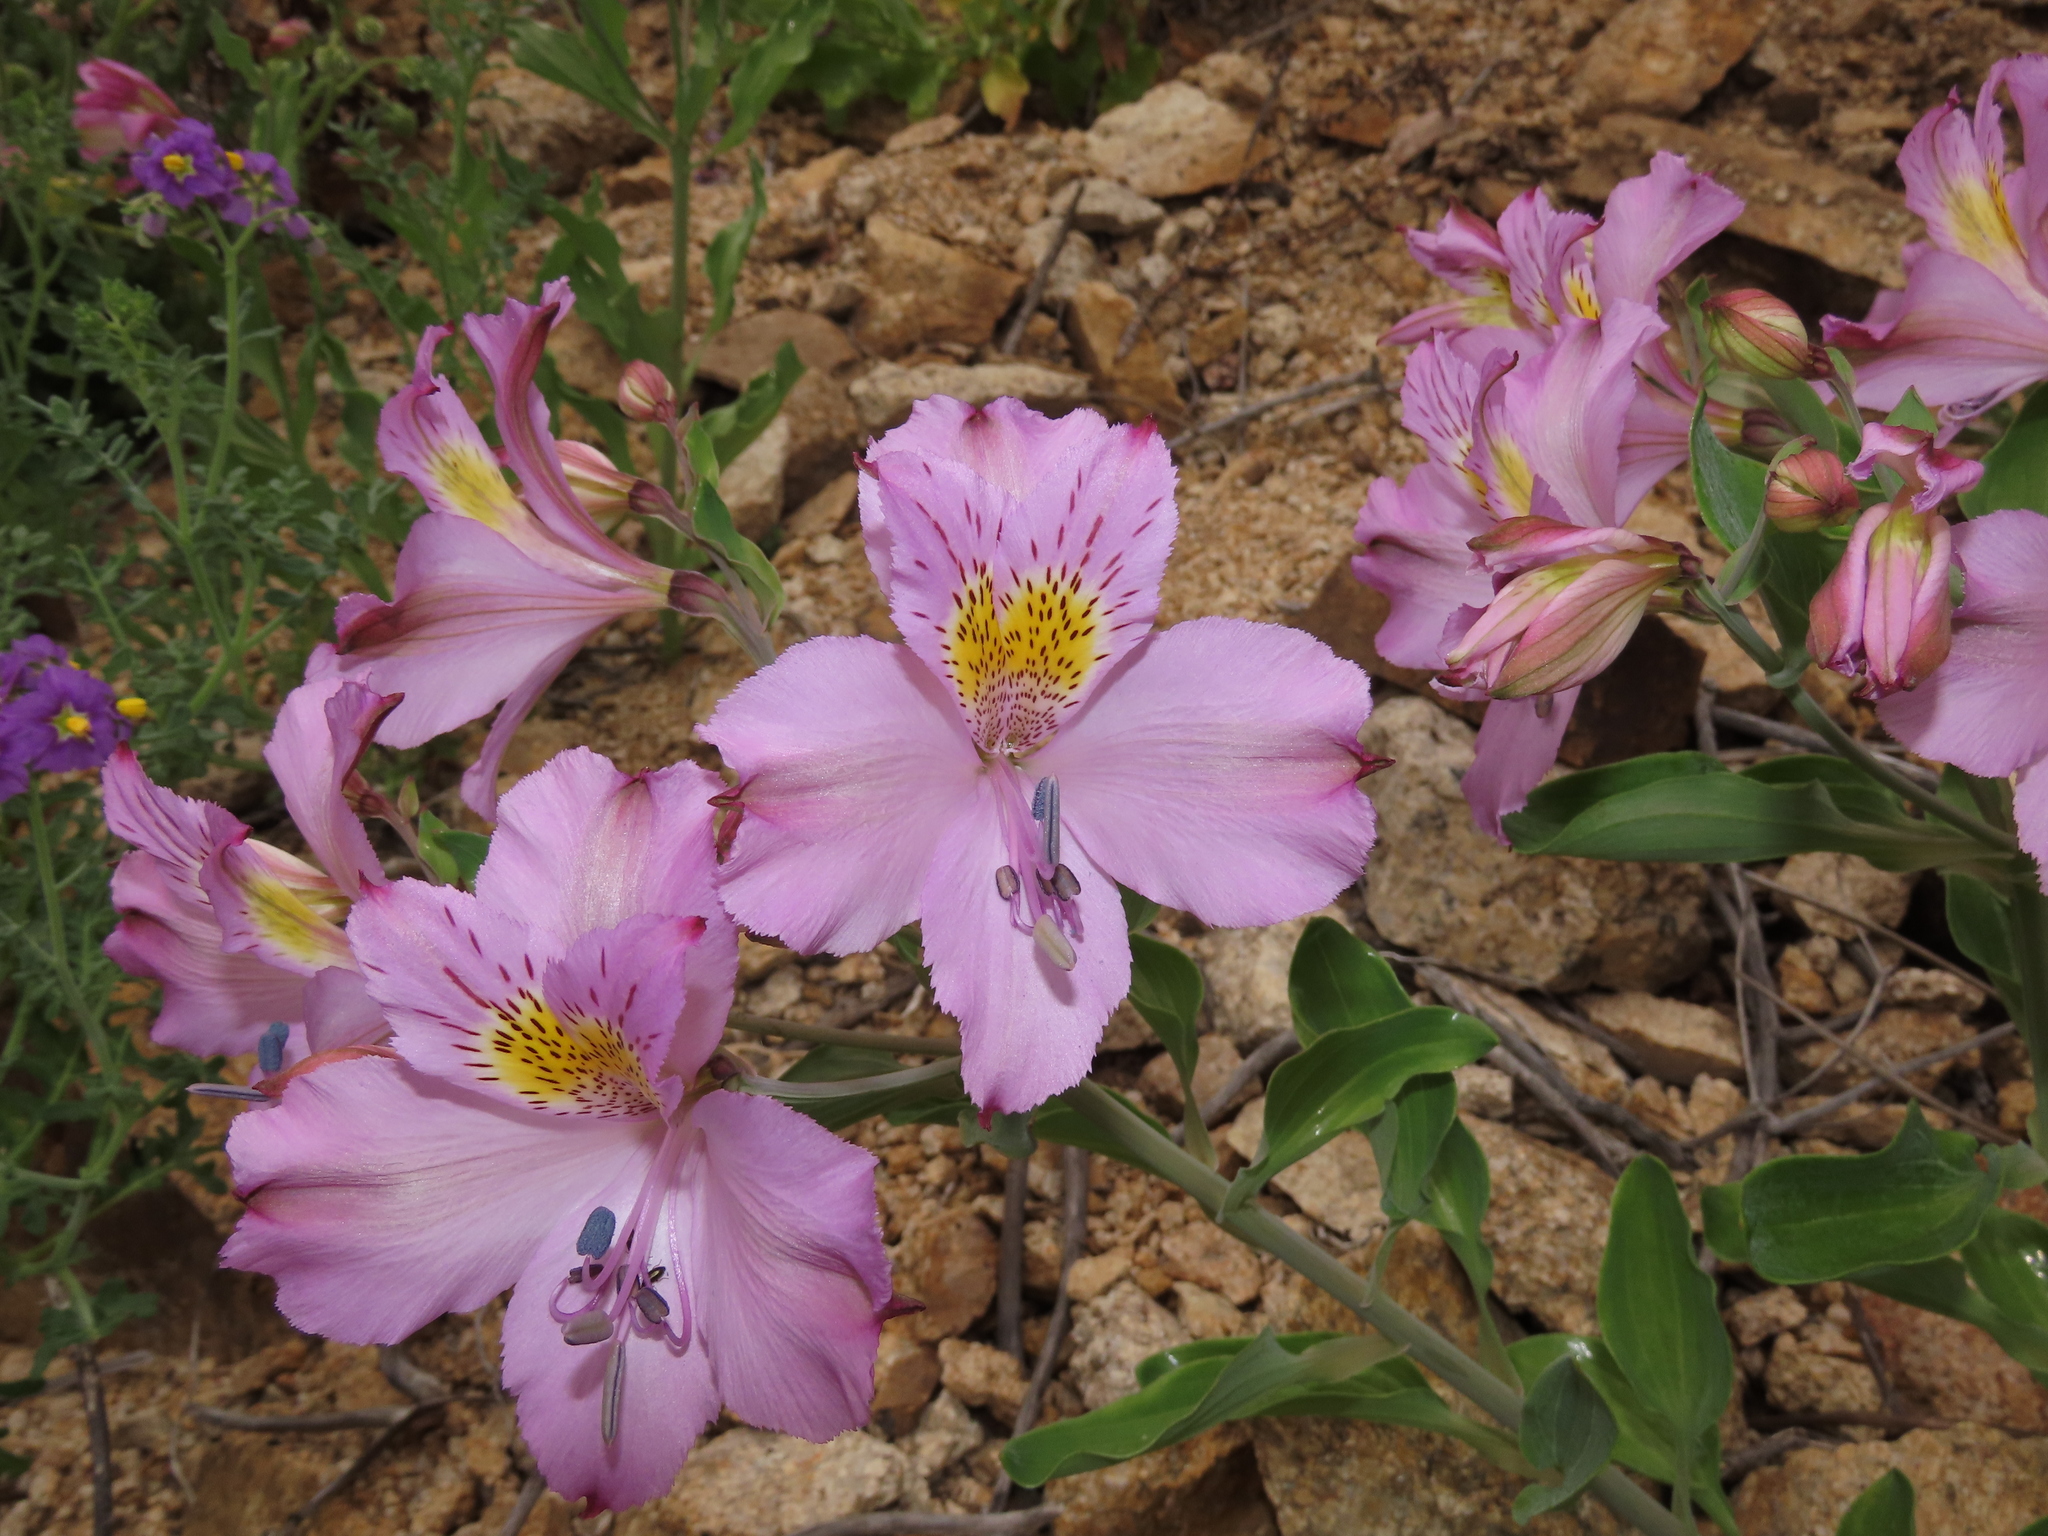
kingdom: Plantae
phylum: Tracheophyta
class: Liliopsida
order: Liliales
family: Alstroemeriaceae
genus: Alstroemeria
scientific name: Alstroemeria violacea
